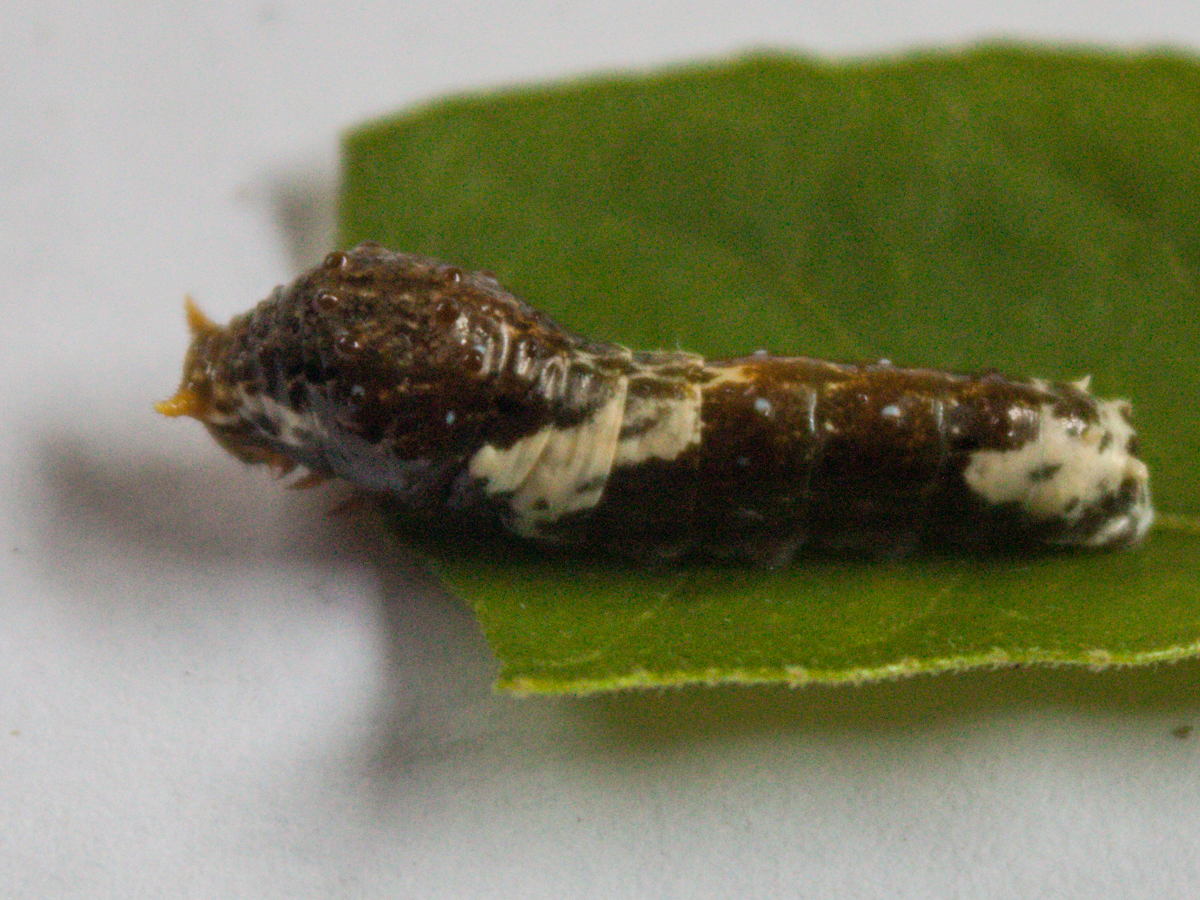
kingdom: Animalia
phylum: Arthropoda
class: Insecta
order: Lepidoptera
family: Papilionidae
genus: Papilio
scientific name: Papilio polytes
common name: Common mormon
